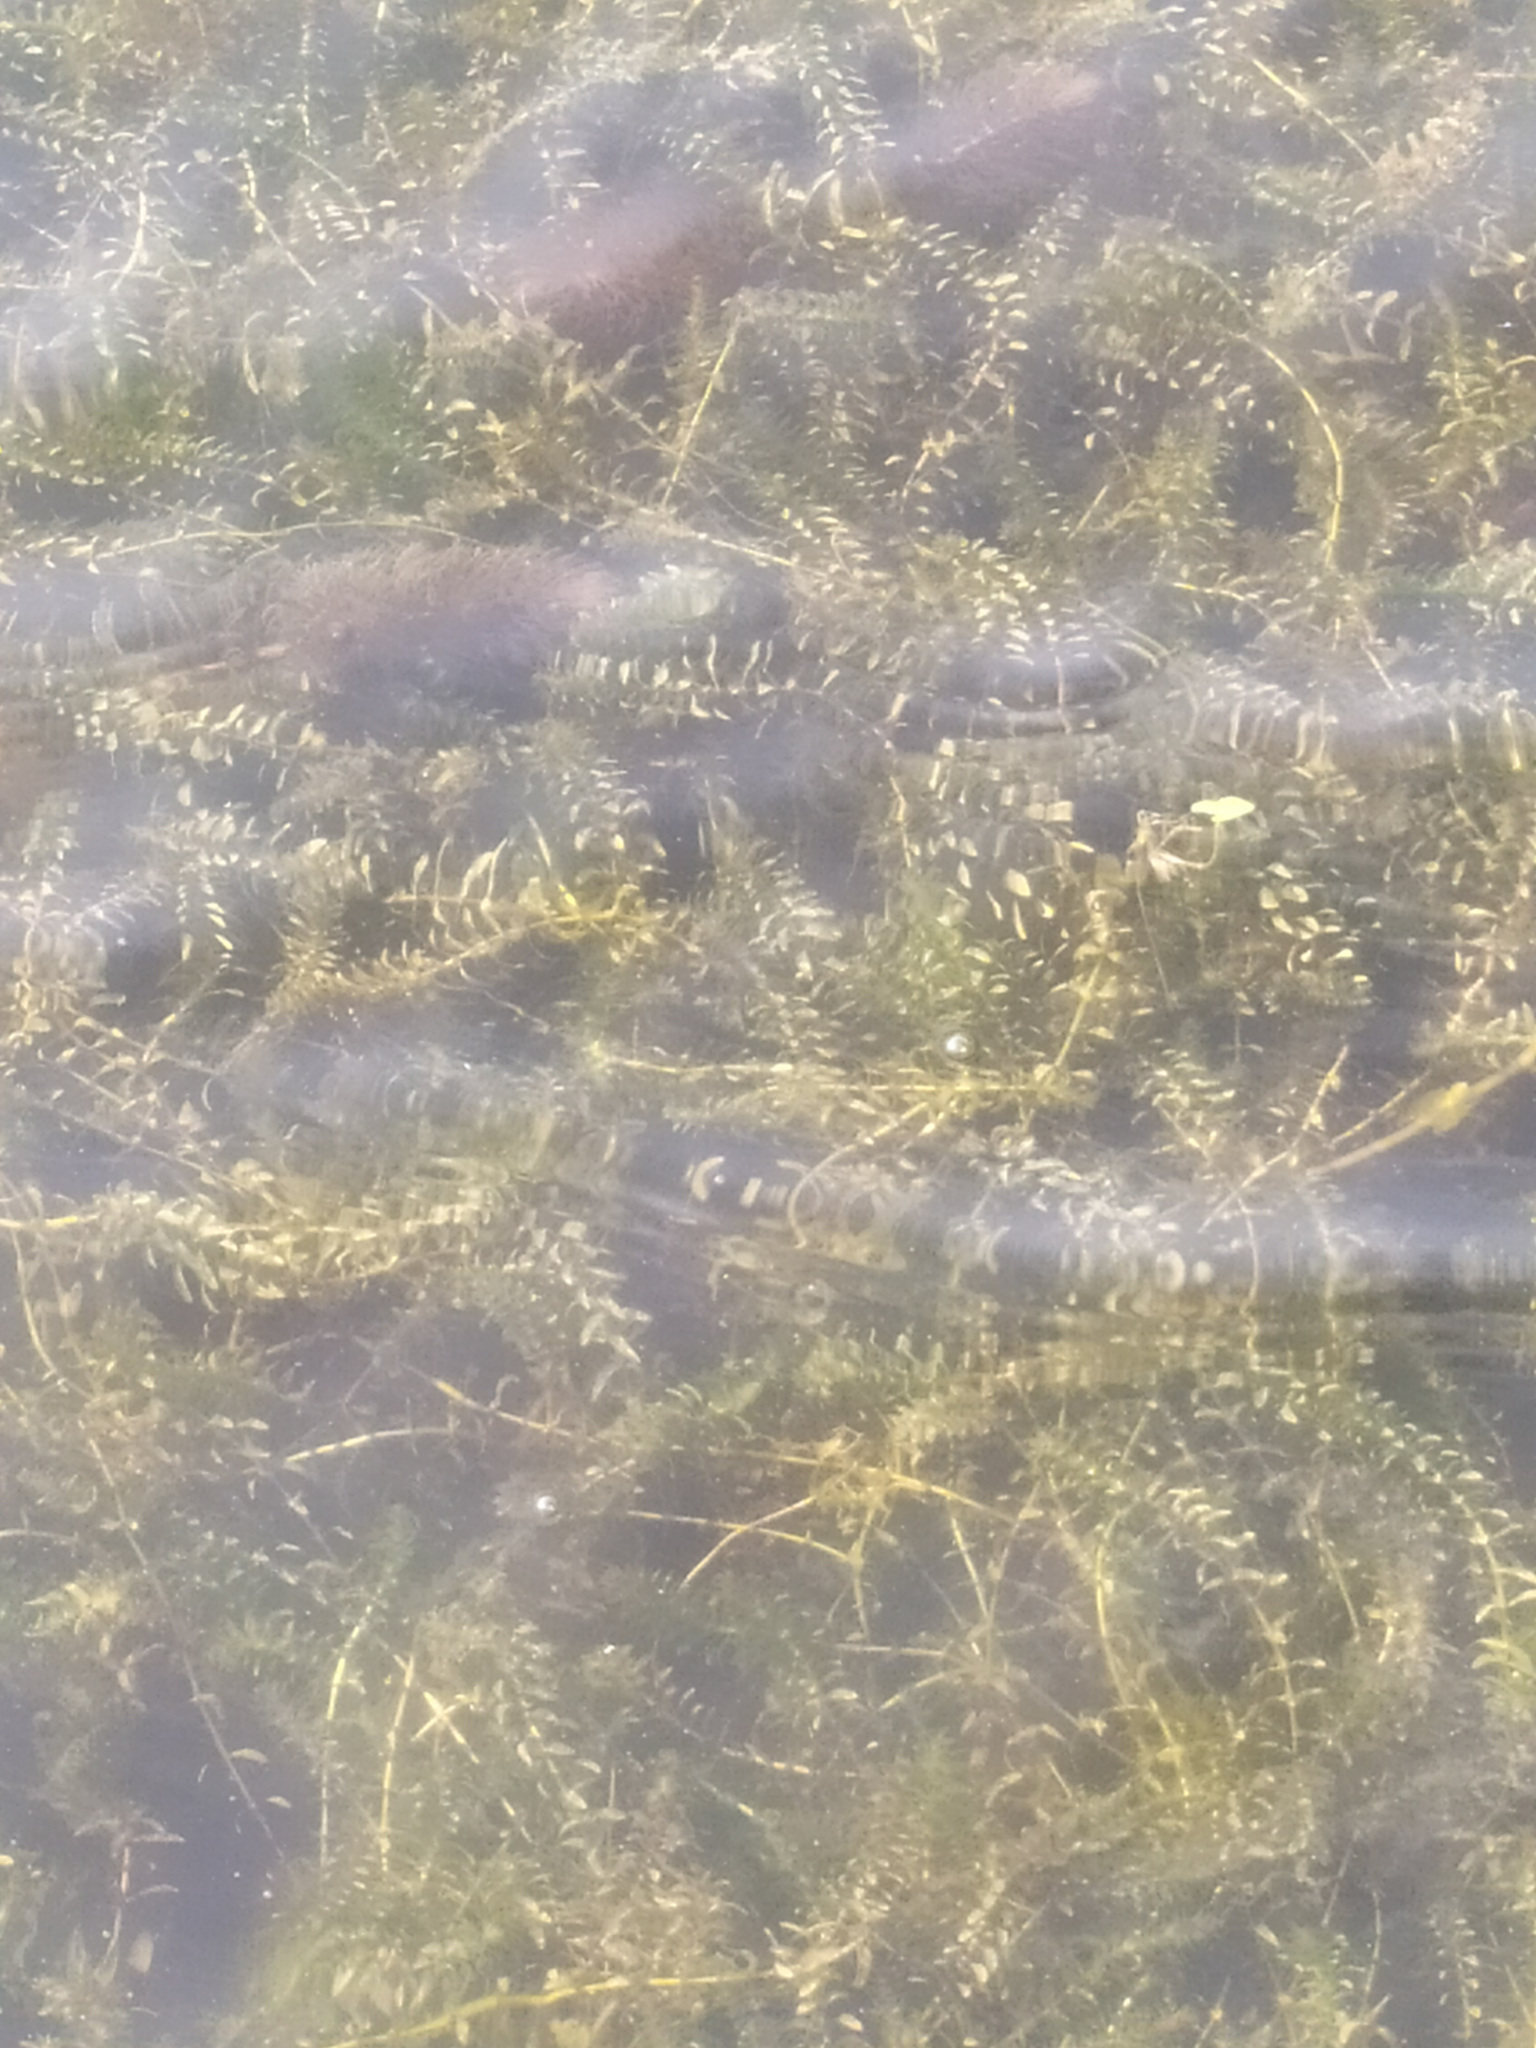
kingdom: Plantae
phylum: Tracheophyta
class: Liliopsida
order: Alismatales
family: Hydrocharitaceae
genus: Elodea
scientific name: Elodea canadensis
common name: Canadian waterweed
